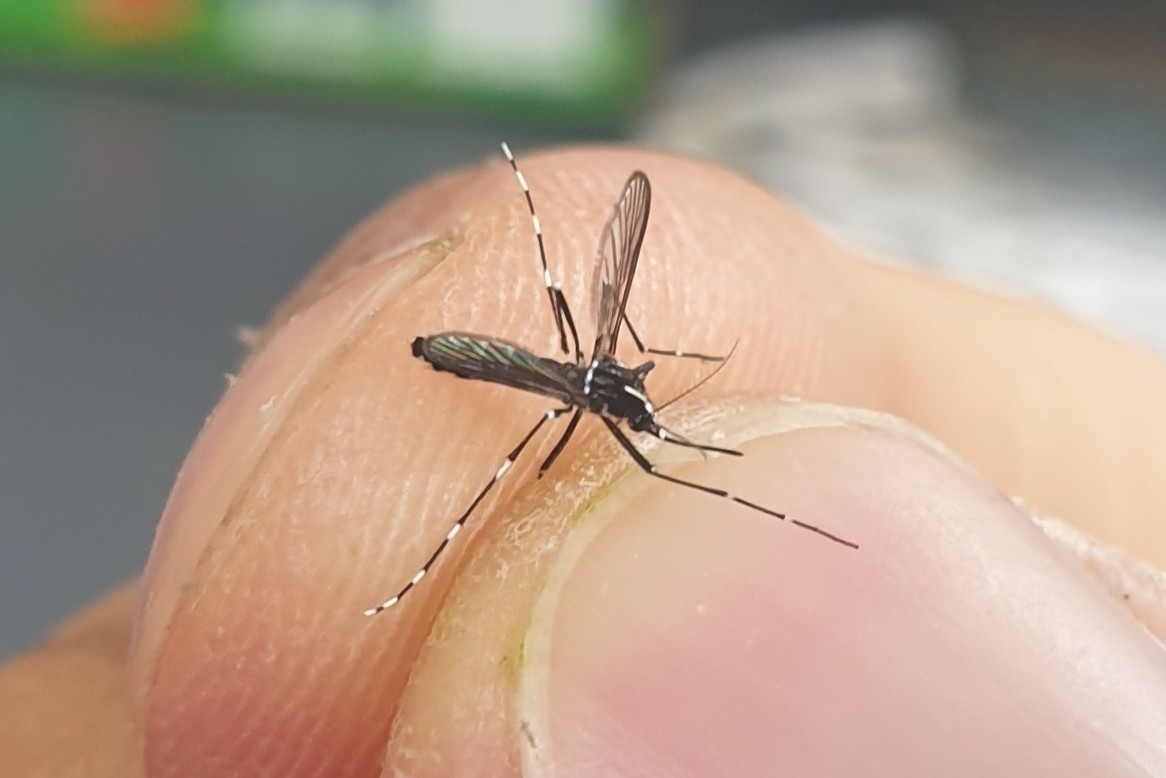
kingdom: Animalia
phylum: Arthropoda
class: Insecta
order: Diptera
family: Culicidae
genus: Aedes
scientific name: Aedes albopictus
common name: Tiger mosquito
